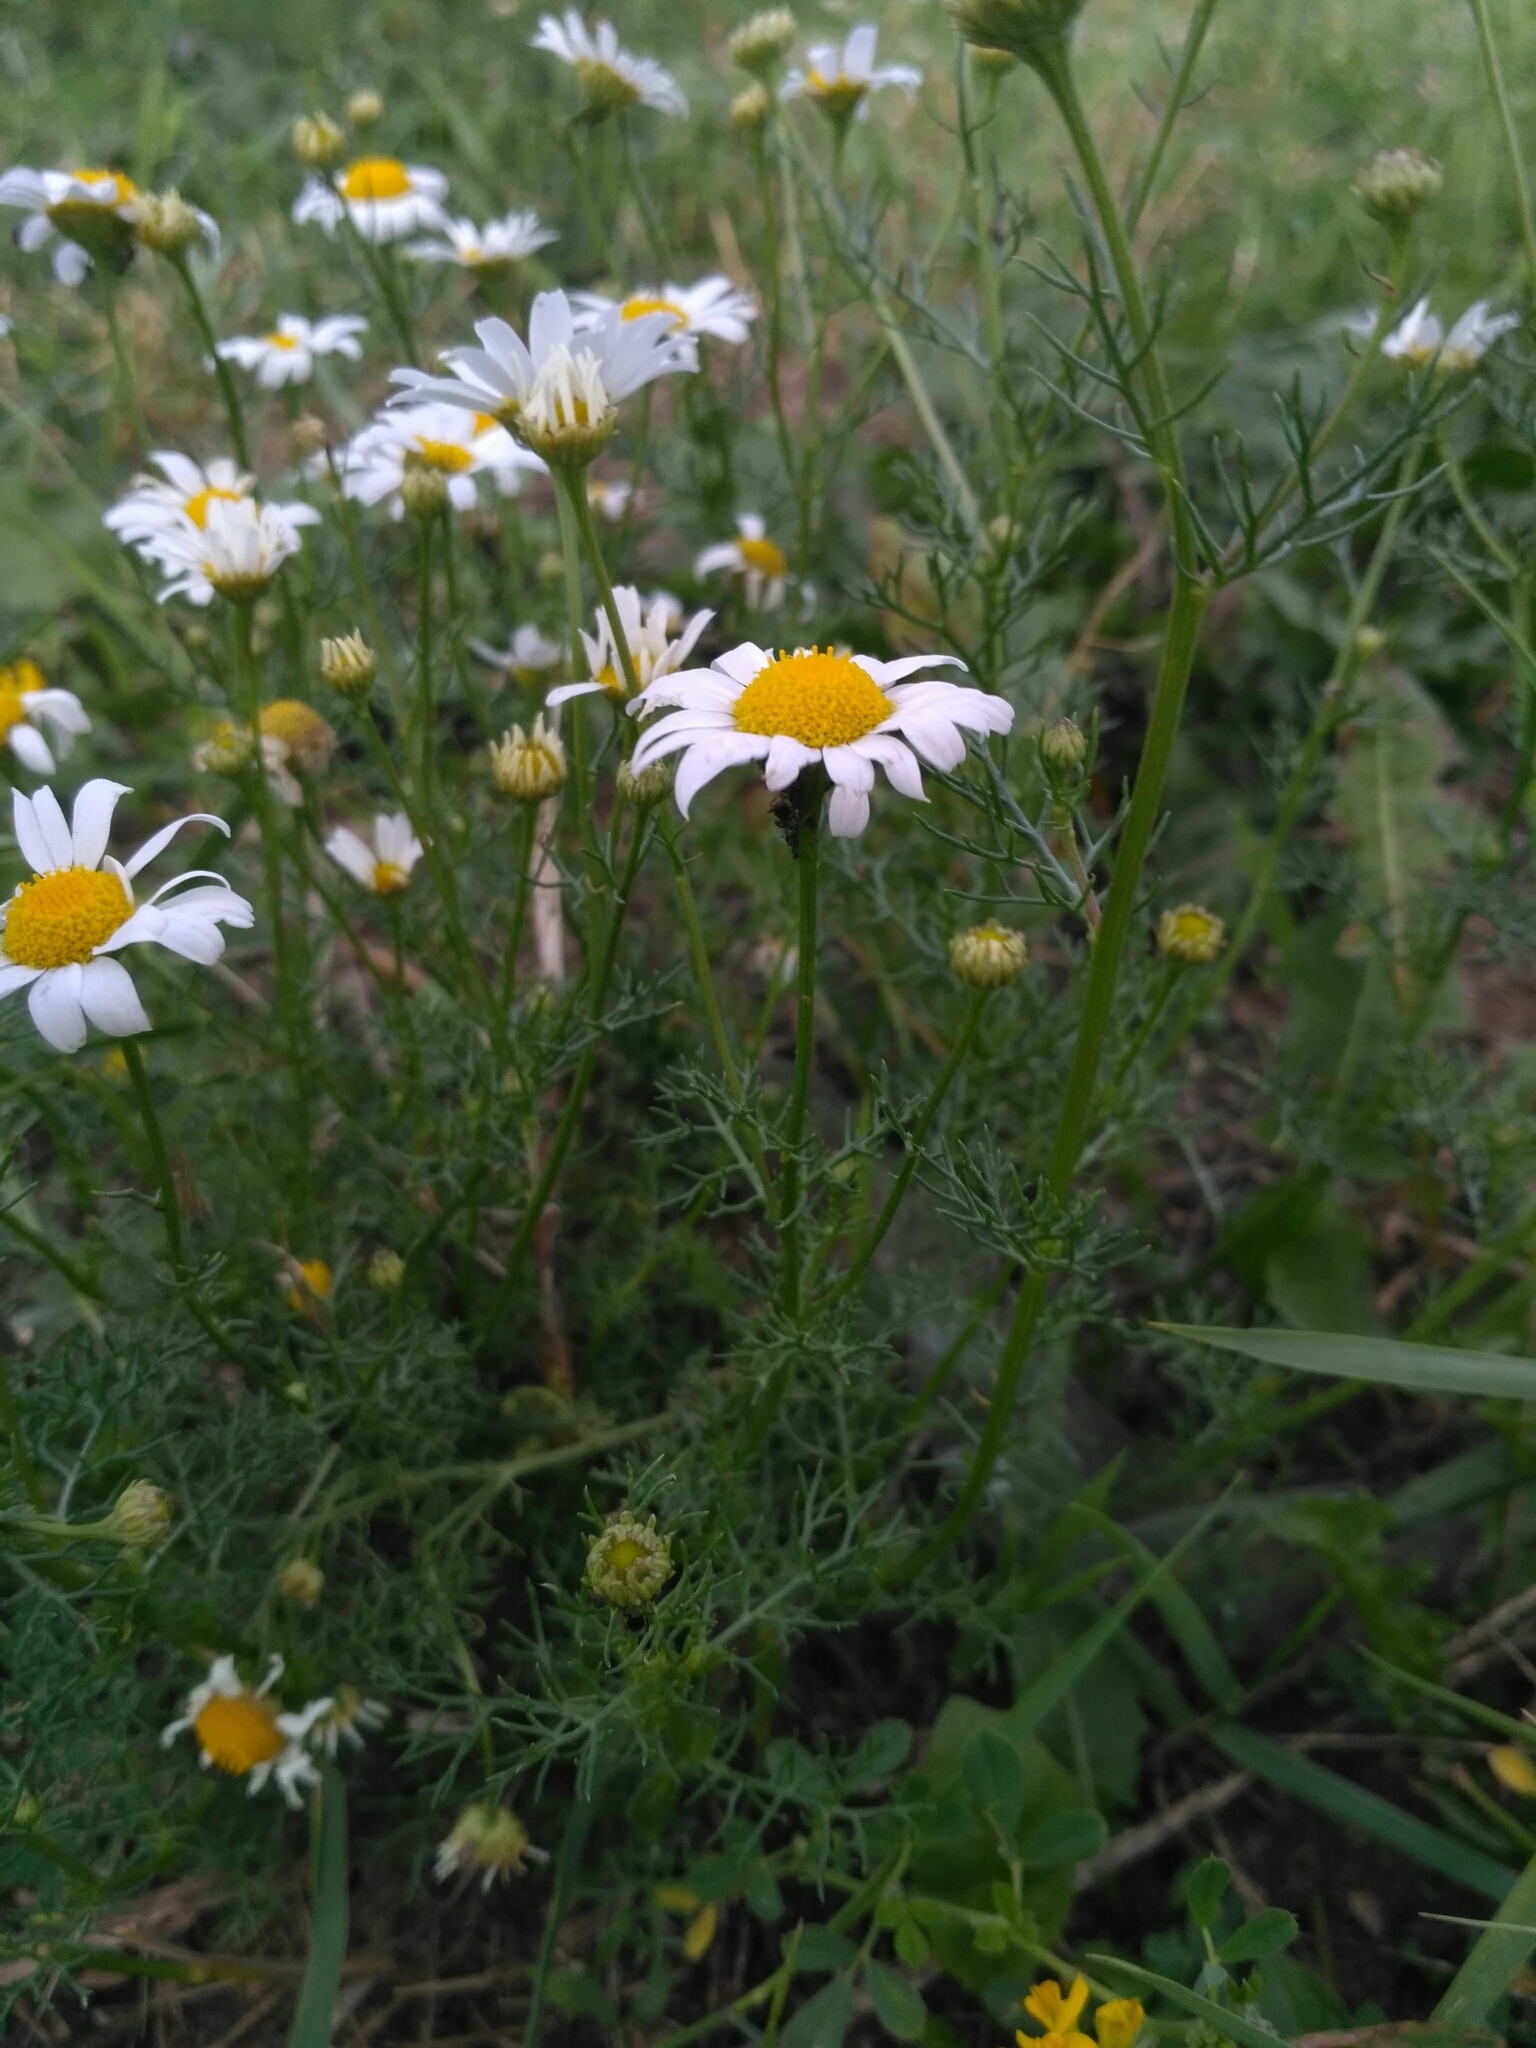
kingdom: Plantae
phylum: Tracheophyta
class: Magnoliopsida
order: Asterales
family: Asteraceae
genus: Tripleurospermum
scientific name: Tripleurospermum inodorum
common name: Scentless mayweed
